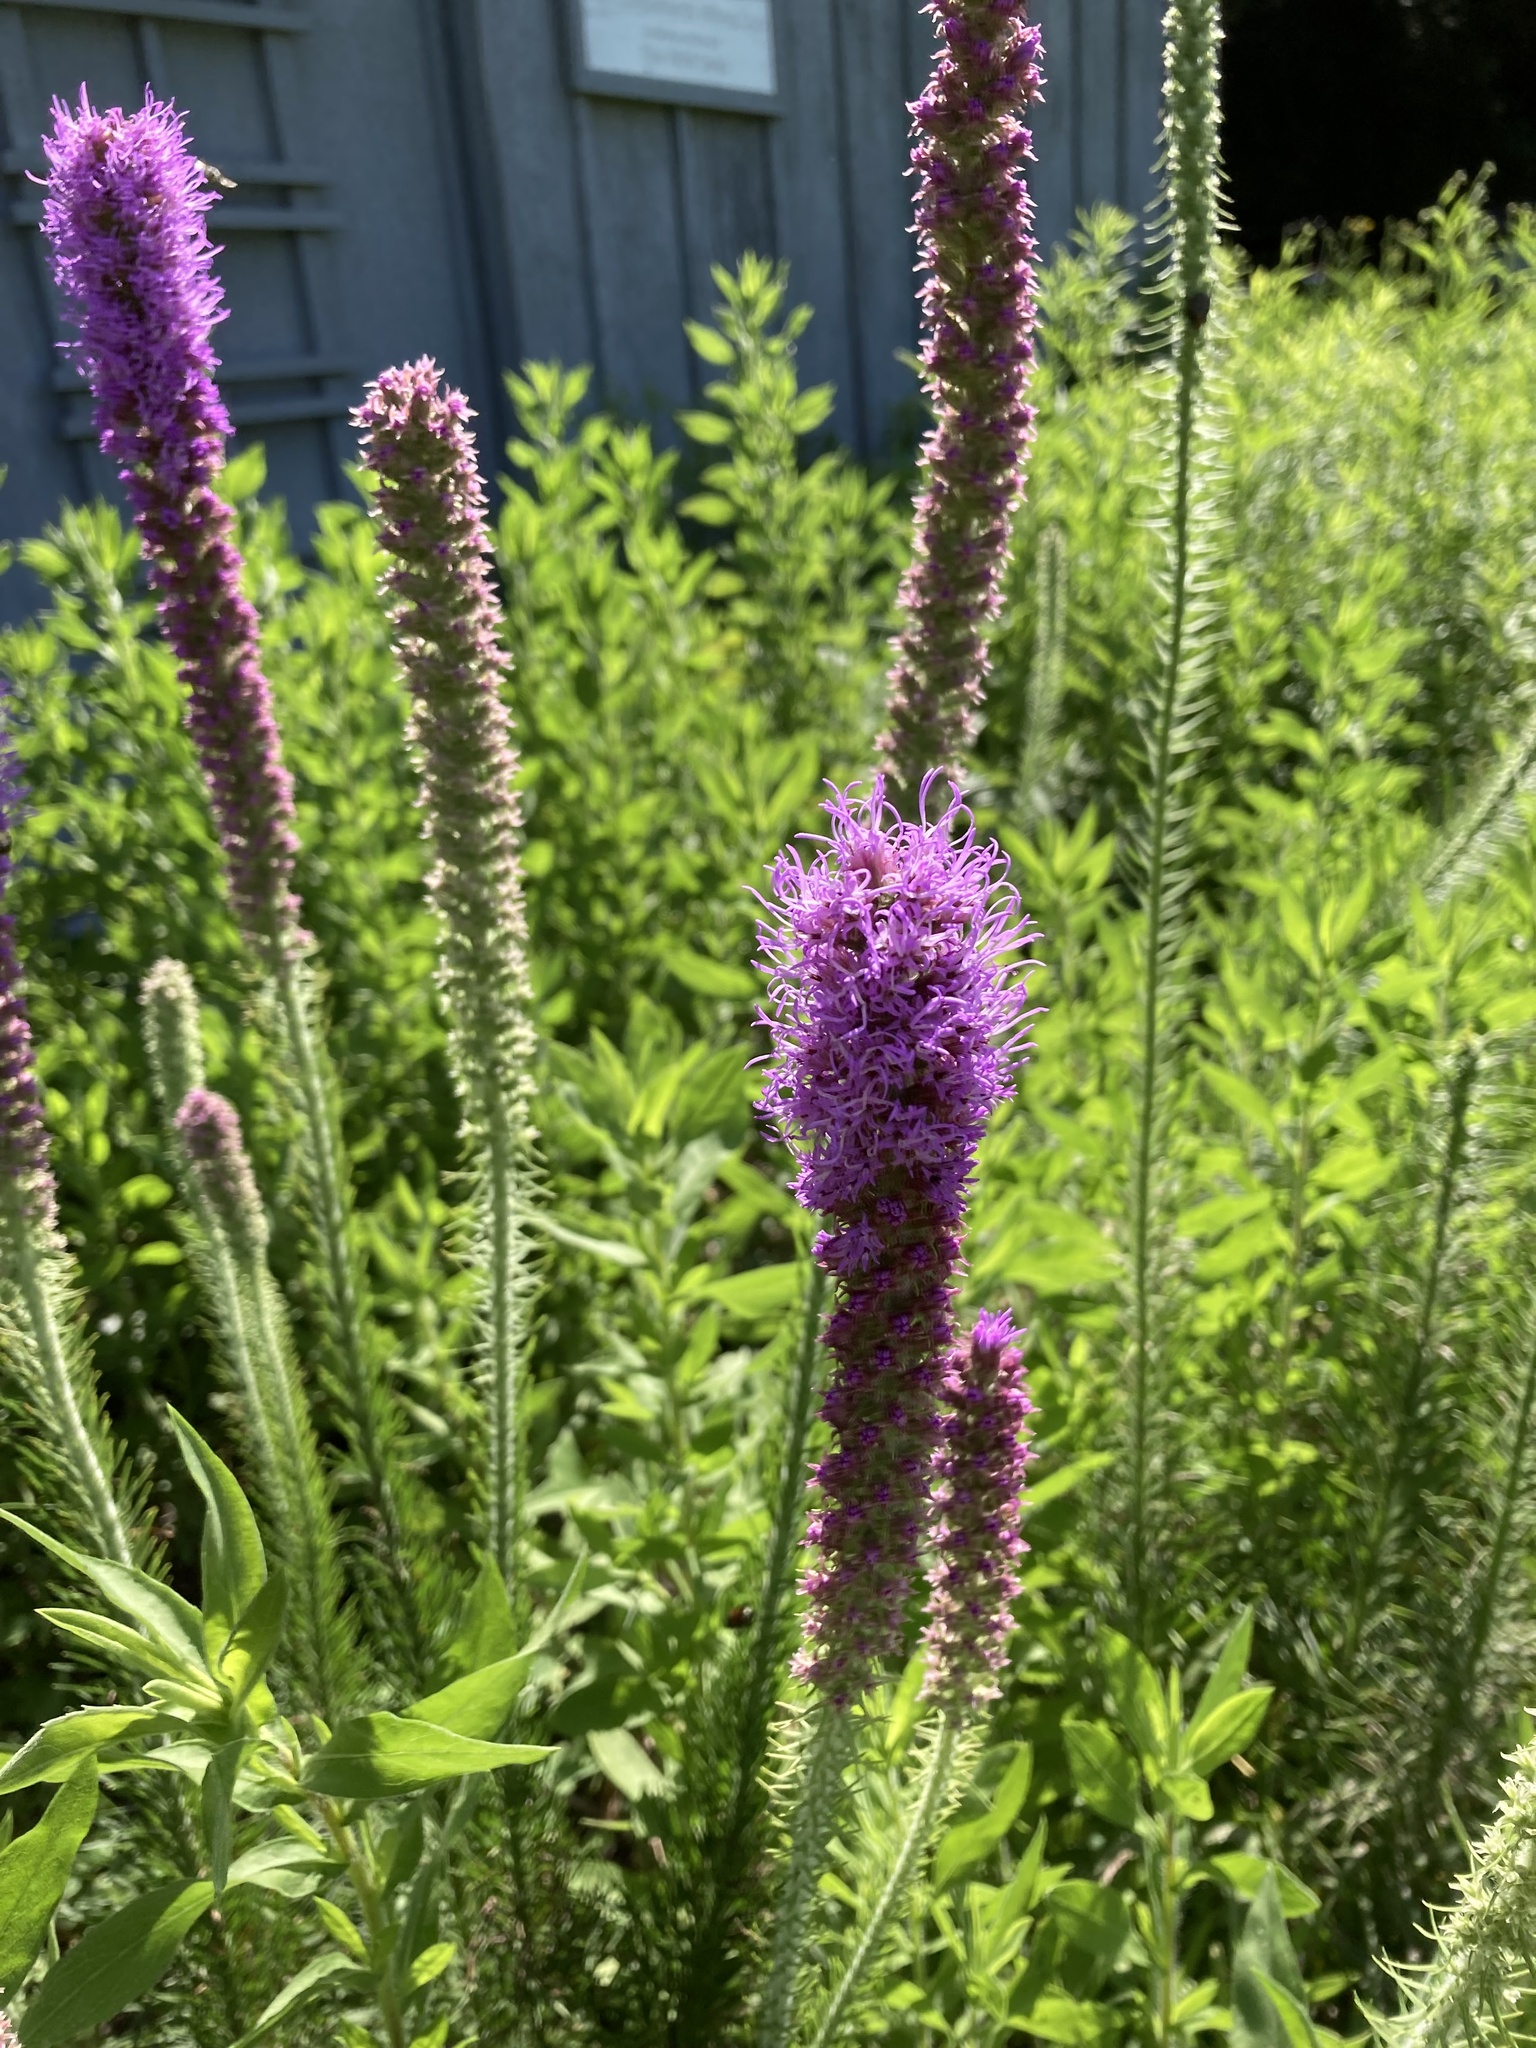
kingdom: Plantae
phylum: Tracheophyta
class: Magnoliopsida
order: Asterales
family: Asteraceae
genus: Liatris
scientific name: Liatris pycnostachya
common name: Cattail gayfeather
